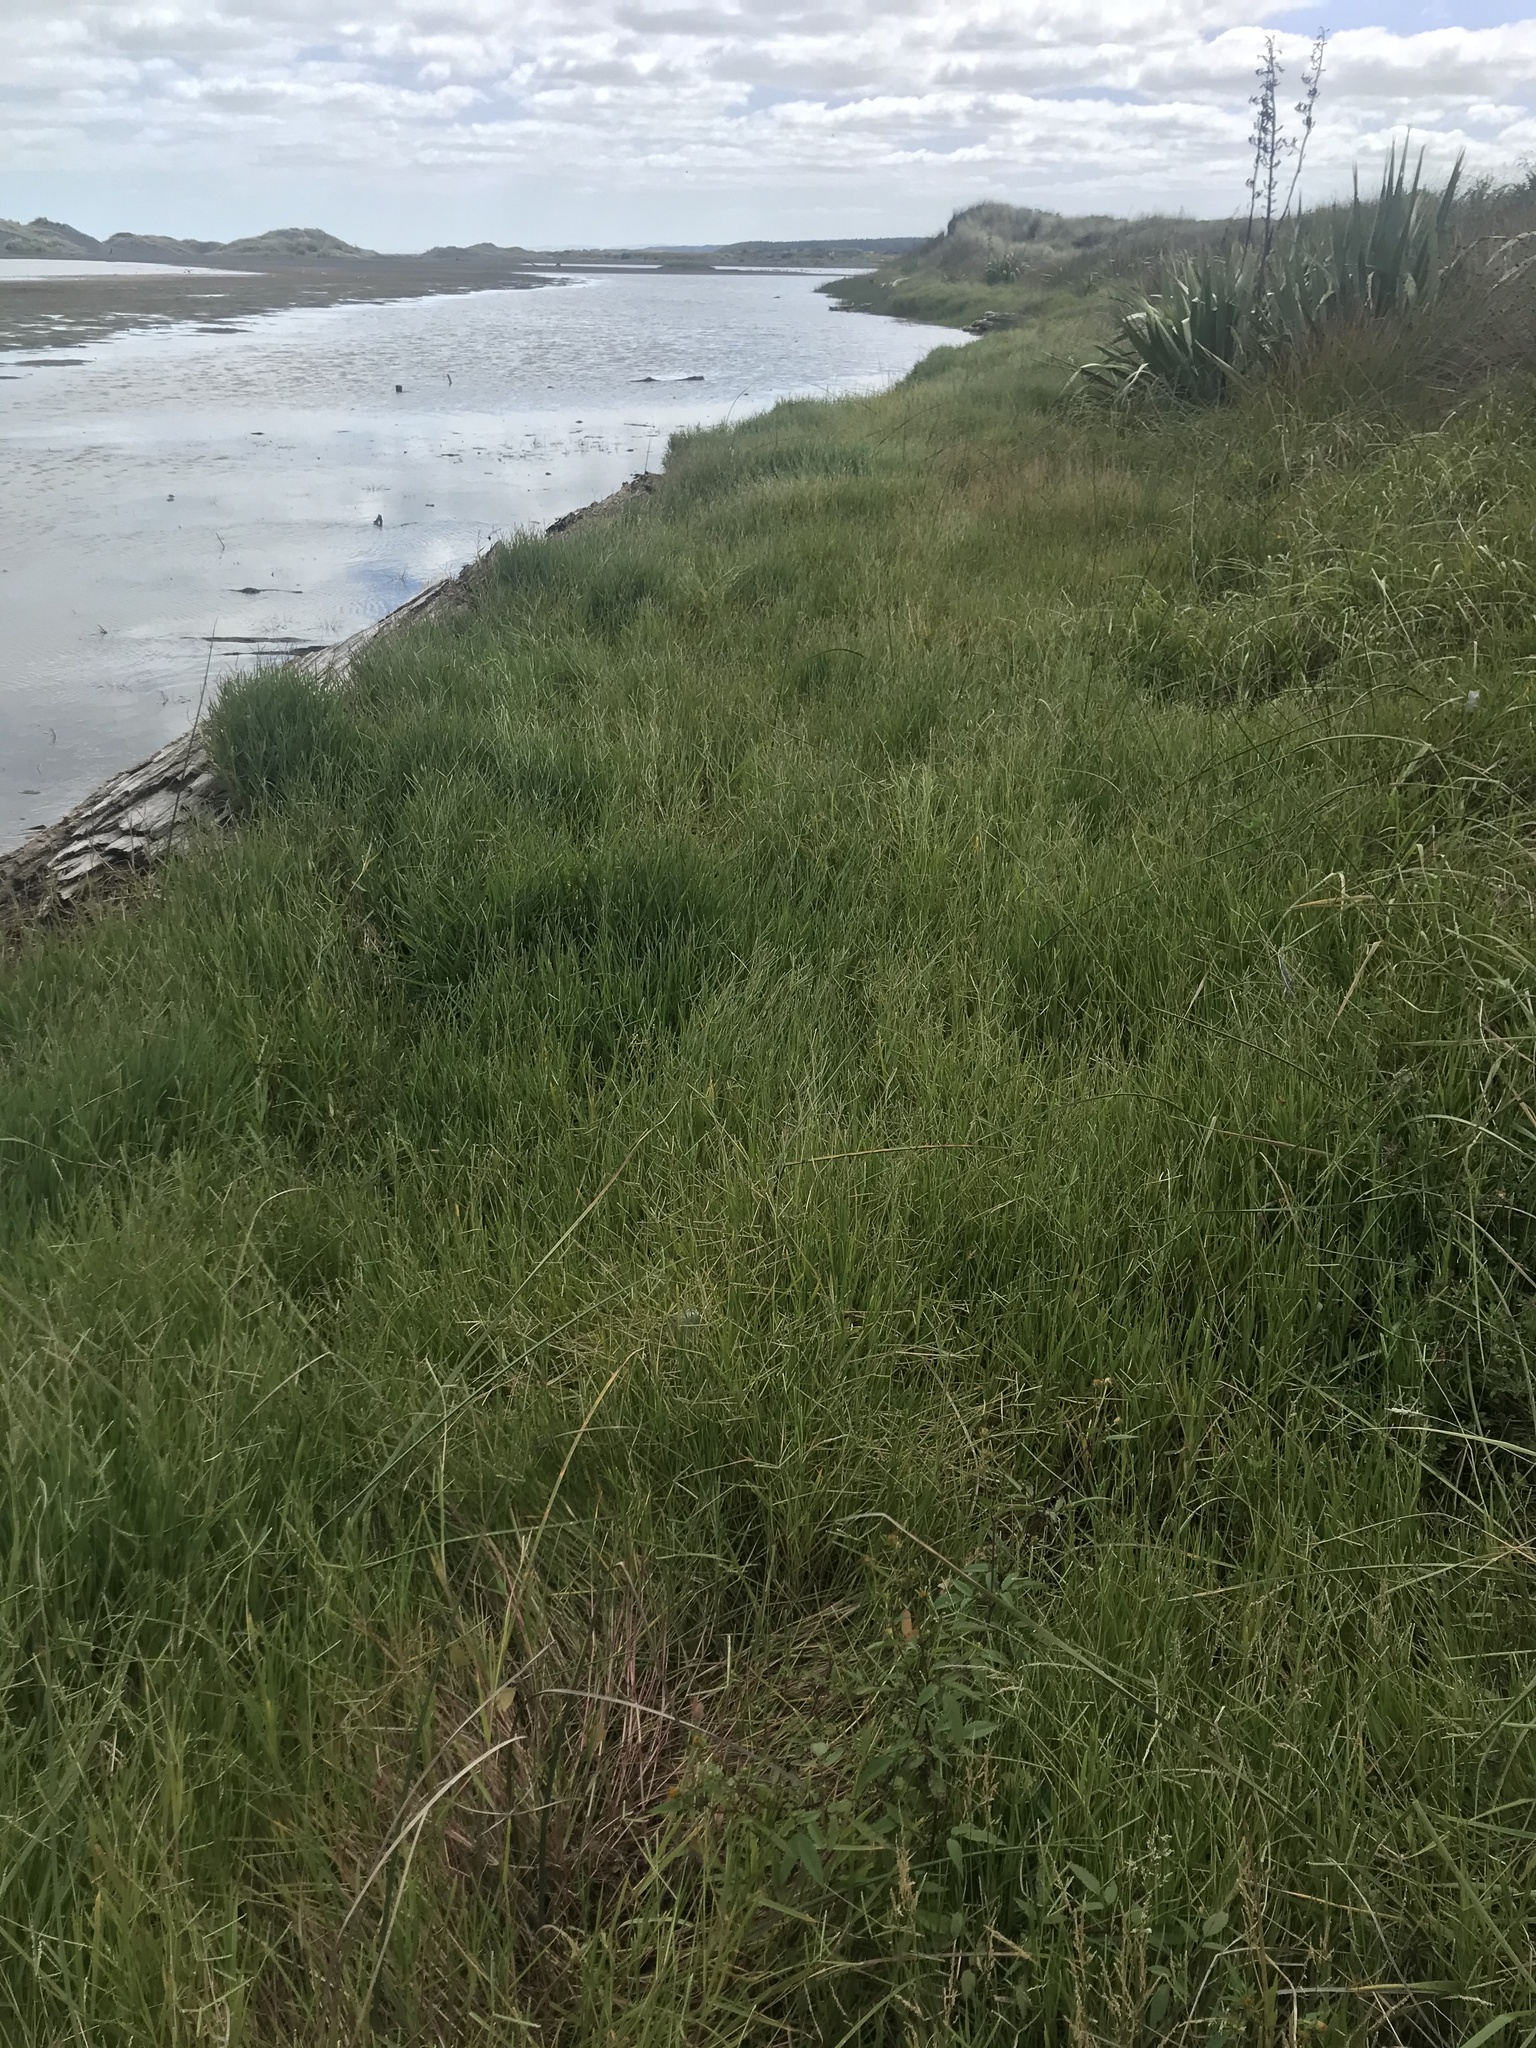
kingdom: Plantae
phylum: Tracheophyta
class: Magnoliopsida
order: Asterales
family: Asteraceae
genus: Bidens
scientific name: Bidens frondosa
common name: Beggarticks
